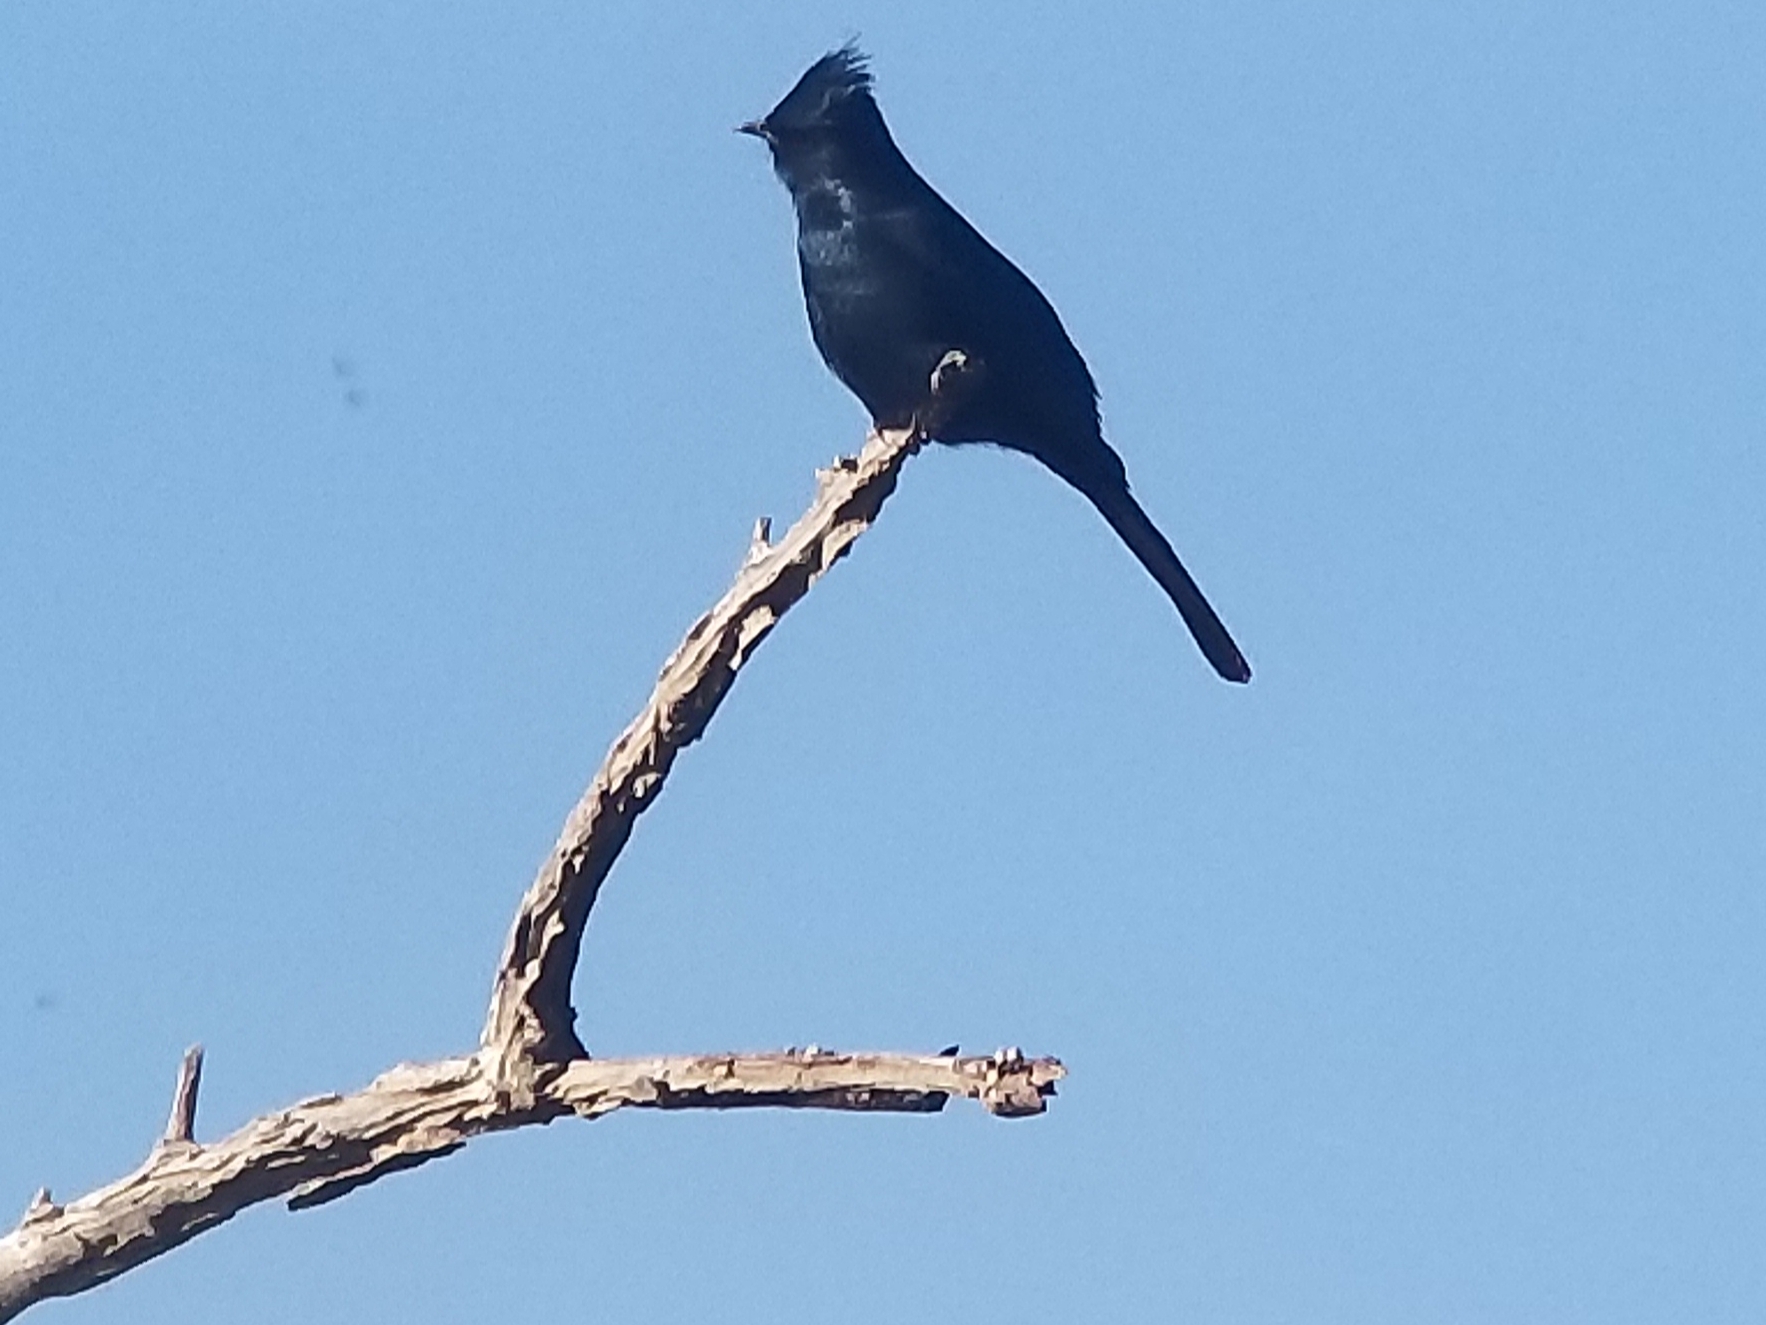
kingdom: Animalia
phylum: Chordata
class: Aves
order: Passeriformes
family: Ptilogonatidae
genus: Phainopepla
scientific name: Phainopepla nitens
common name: Phainopepla
